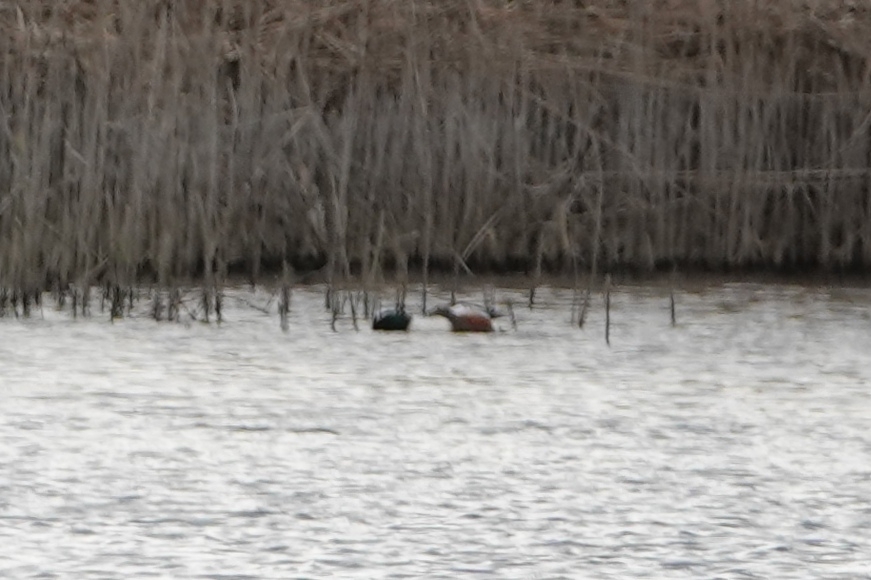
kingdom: Animalia
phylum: Chordata
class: Aves
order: Anseriformes
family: Anatidae
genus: Spatula
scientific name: Spatula clypeata
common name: Northern shoveler
